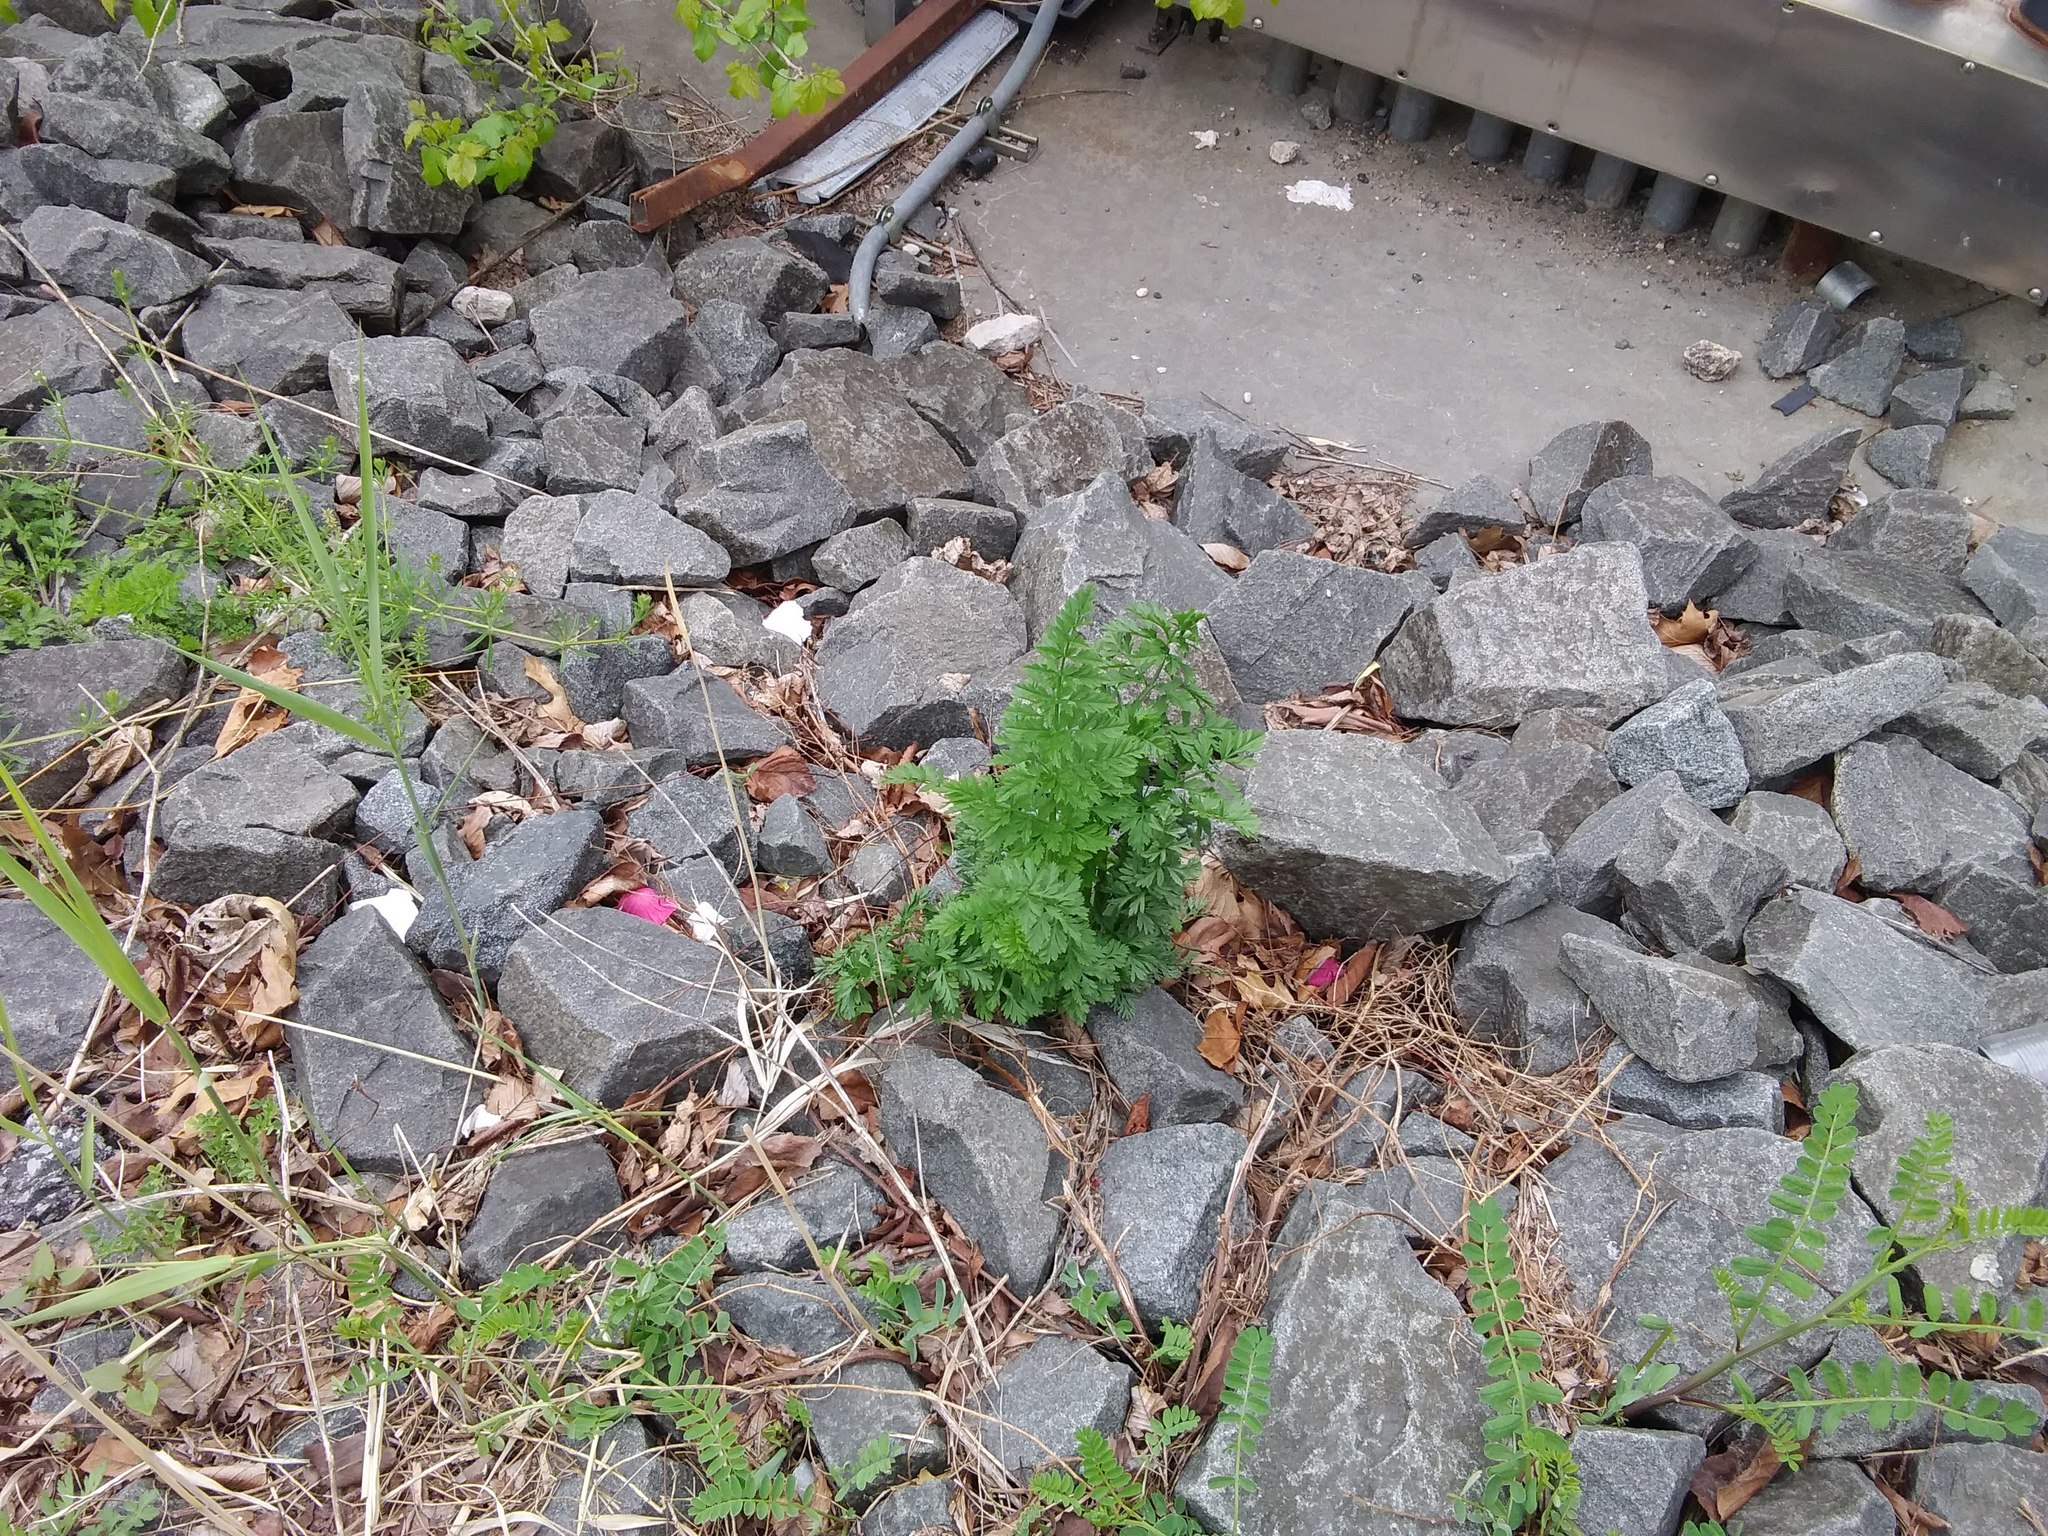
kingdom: Plantae
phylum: Tracheophyta
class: Magnoliopsida
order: Apiales
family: Apiaceae
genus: Daucus
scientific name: Daucus carota
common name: Wild carrot
